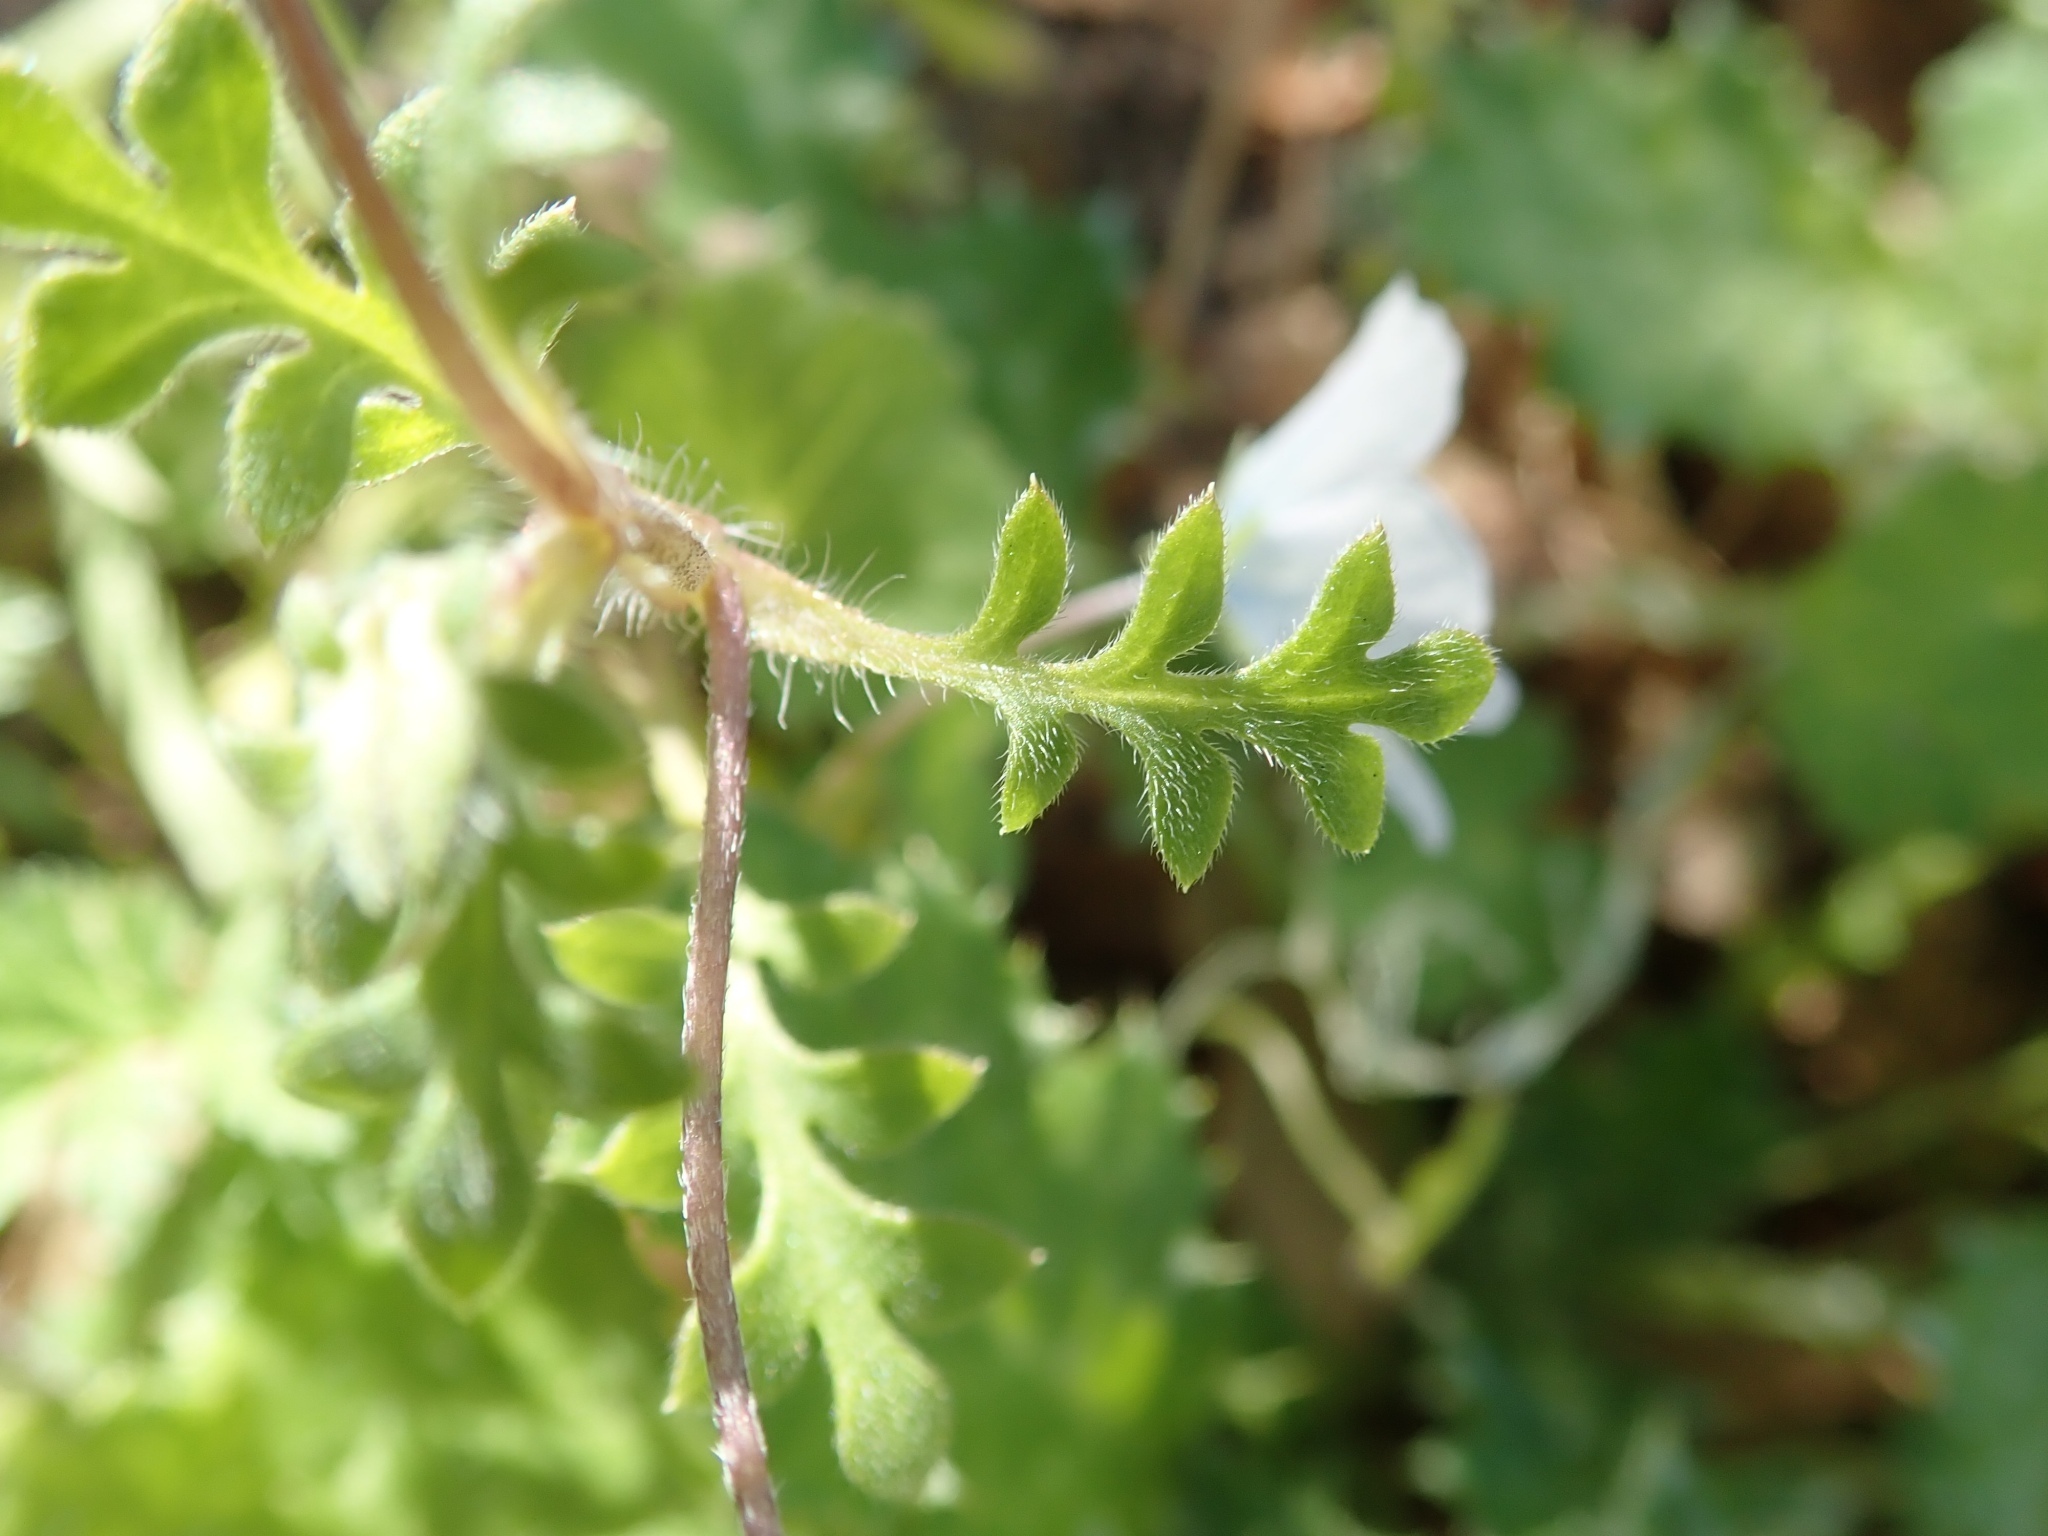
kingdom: Plantae
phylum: Tracheophyta
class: Magnoliopsida
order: Boraginales
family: Hydrophyllaceae
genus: Nemophila
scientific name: Nemophila menziesii
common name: Baby's-blue-eyes
